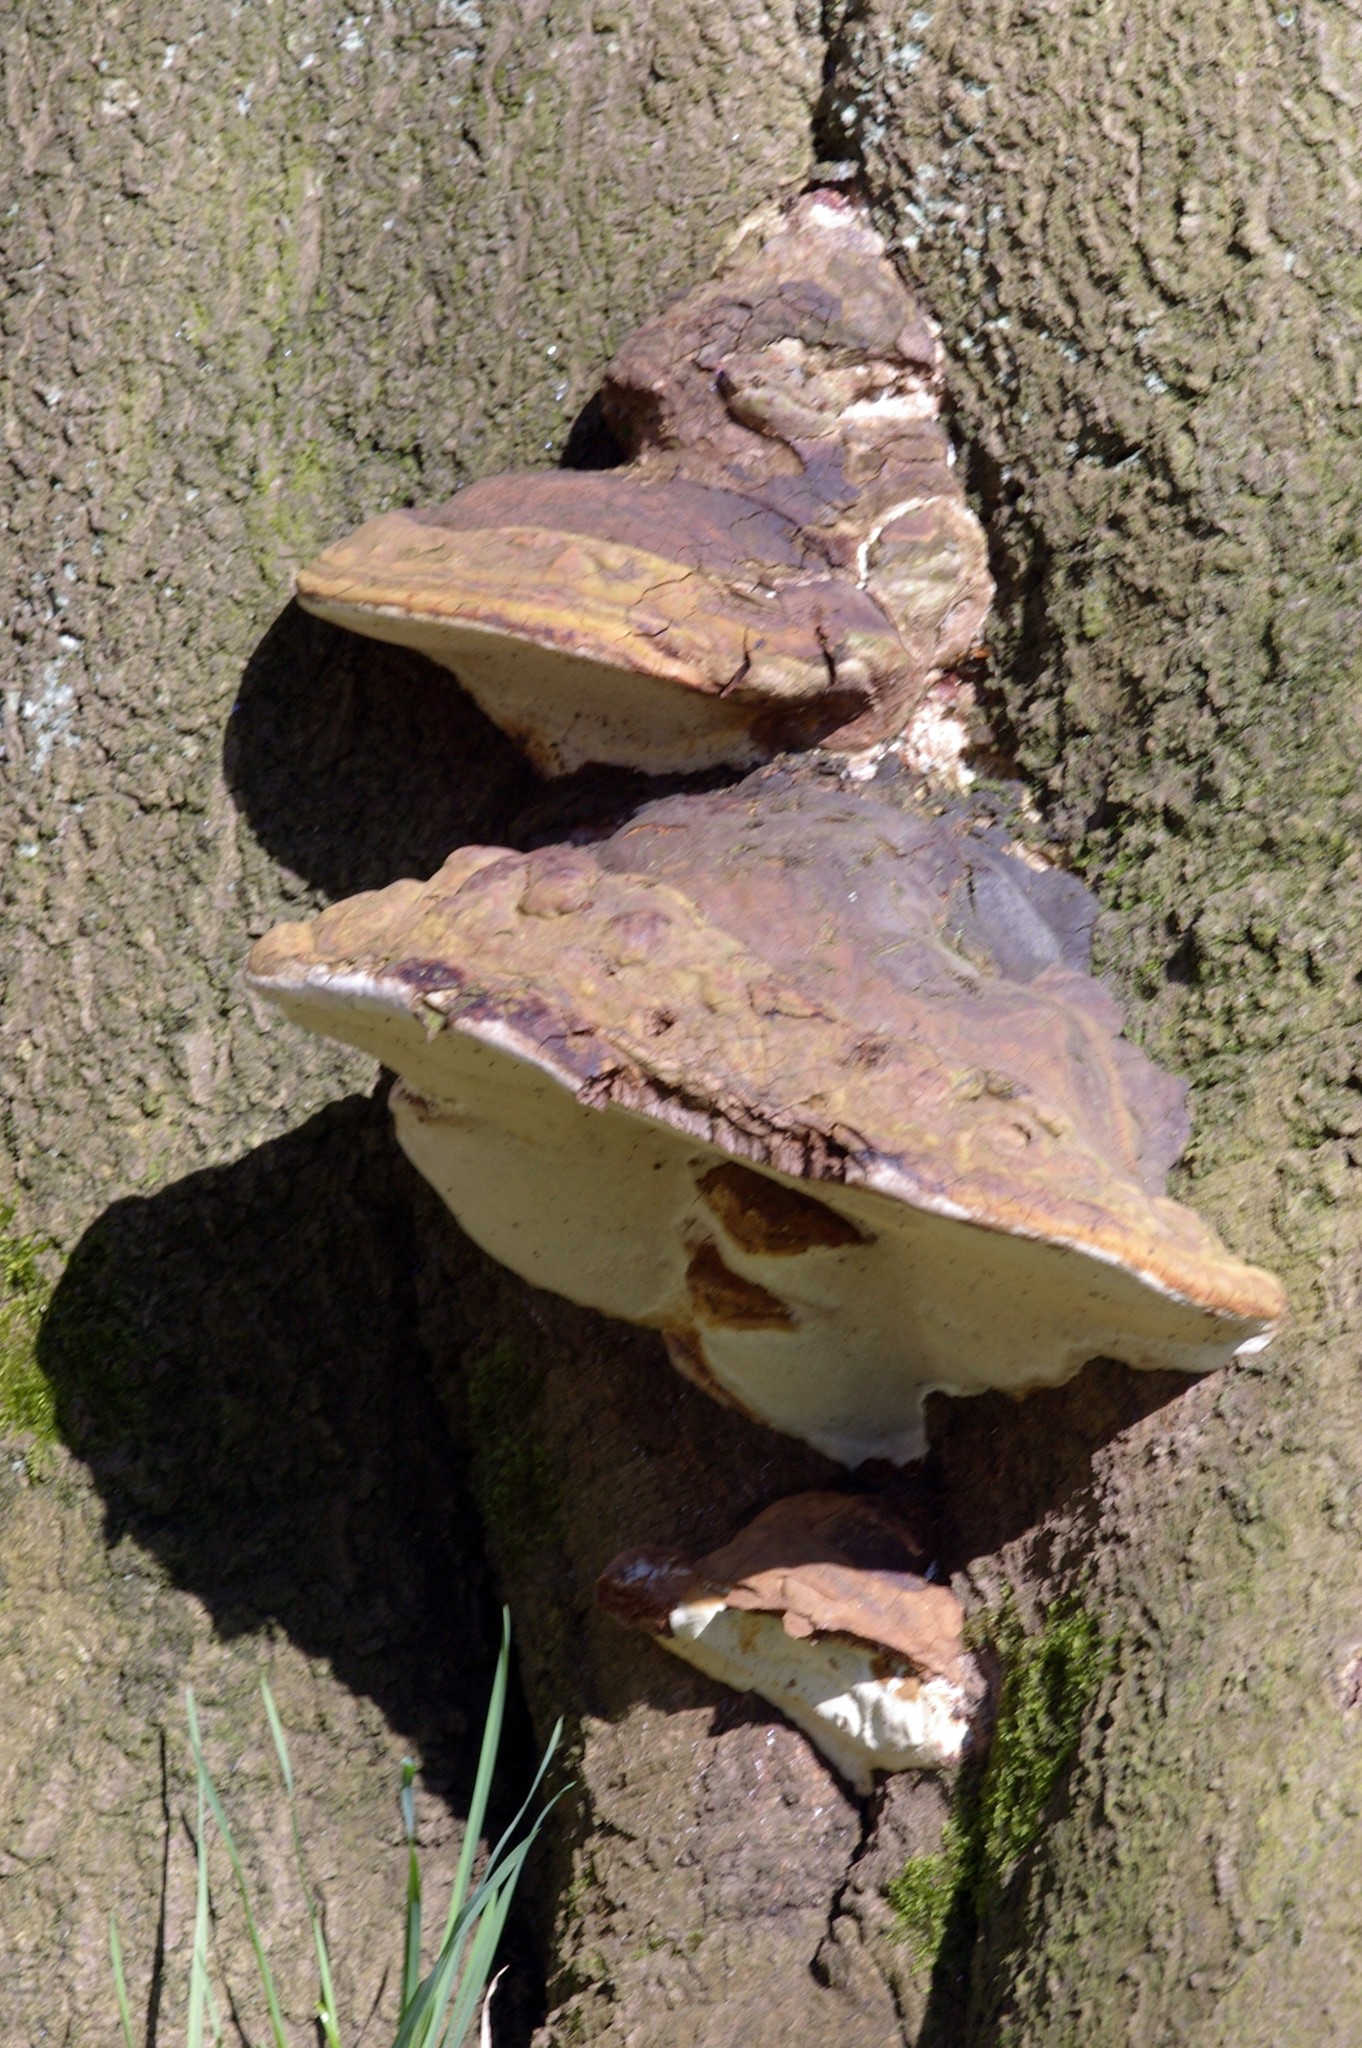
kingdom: Fungi
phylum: Basidiomycota
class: Agaricomycetes
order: Polyporales
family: Polyporaceae
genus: Fomes
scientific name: Fomes fomentarius
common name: Hoof fungus
